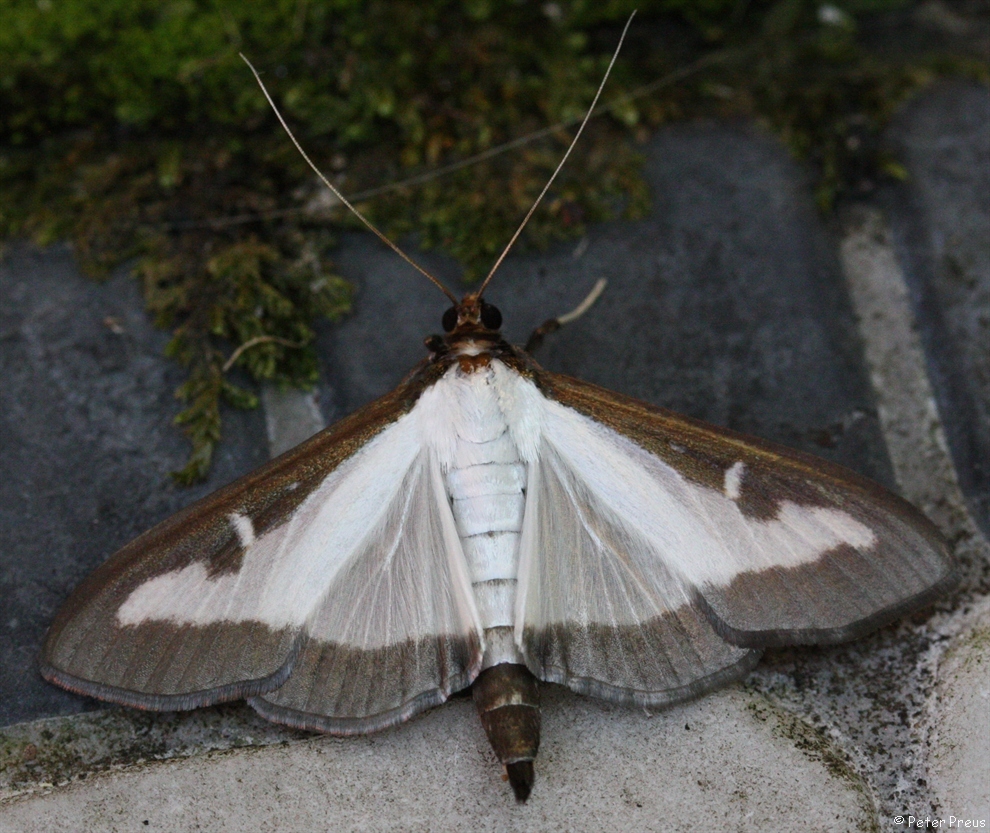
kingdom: Animalia
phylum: Arthropoda
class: Insecta
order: Lepidoptera
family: Crambidae
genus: Cydalima
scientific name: Cydalima perspectalis
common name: Box tree moth
